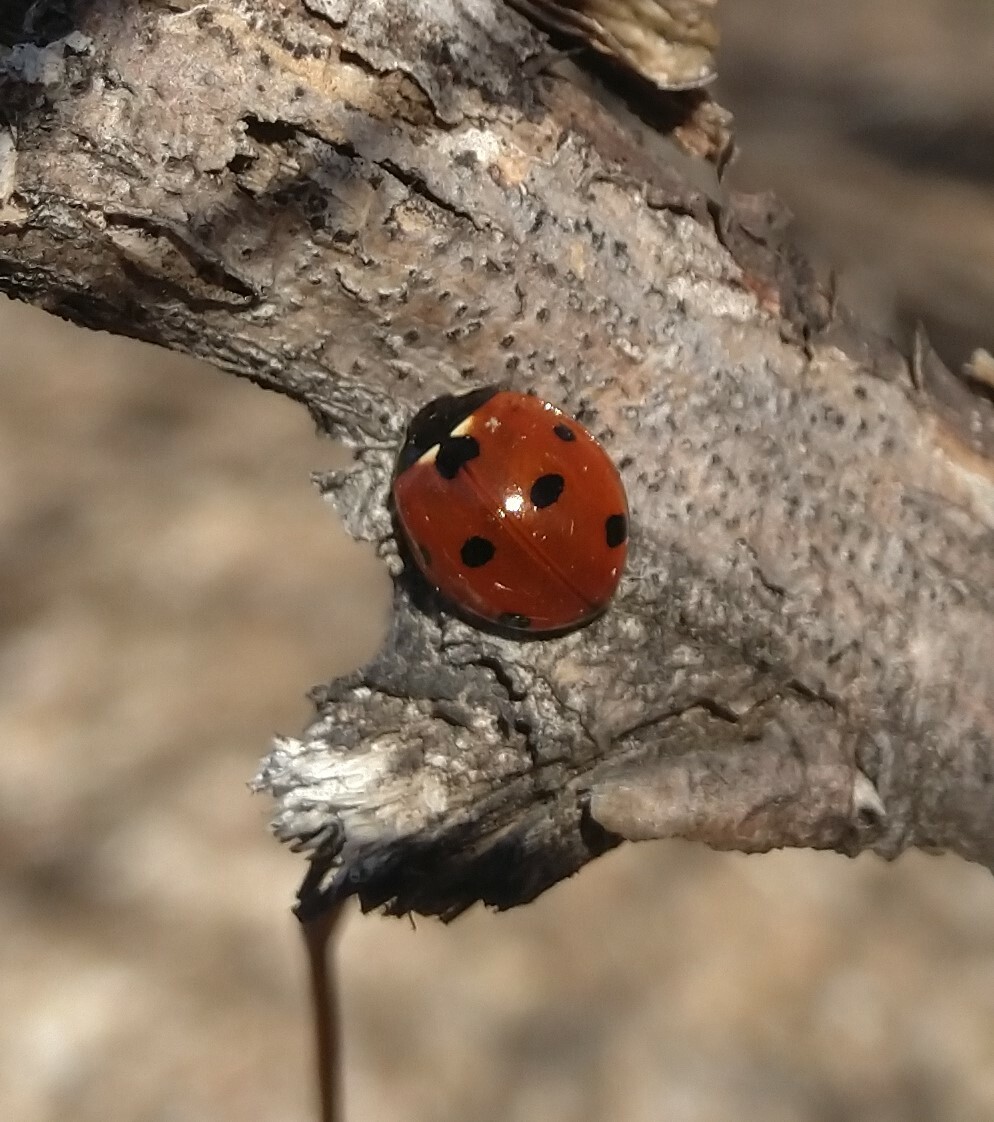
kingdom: Animalia
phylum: Arthropoda
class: Insecta
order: Coleoptera
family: Coccinellidae
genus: Coccinella
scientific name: Coccinella septempunctata
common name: Sevenspotted lady beetle
